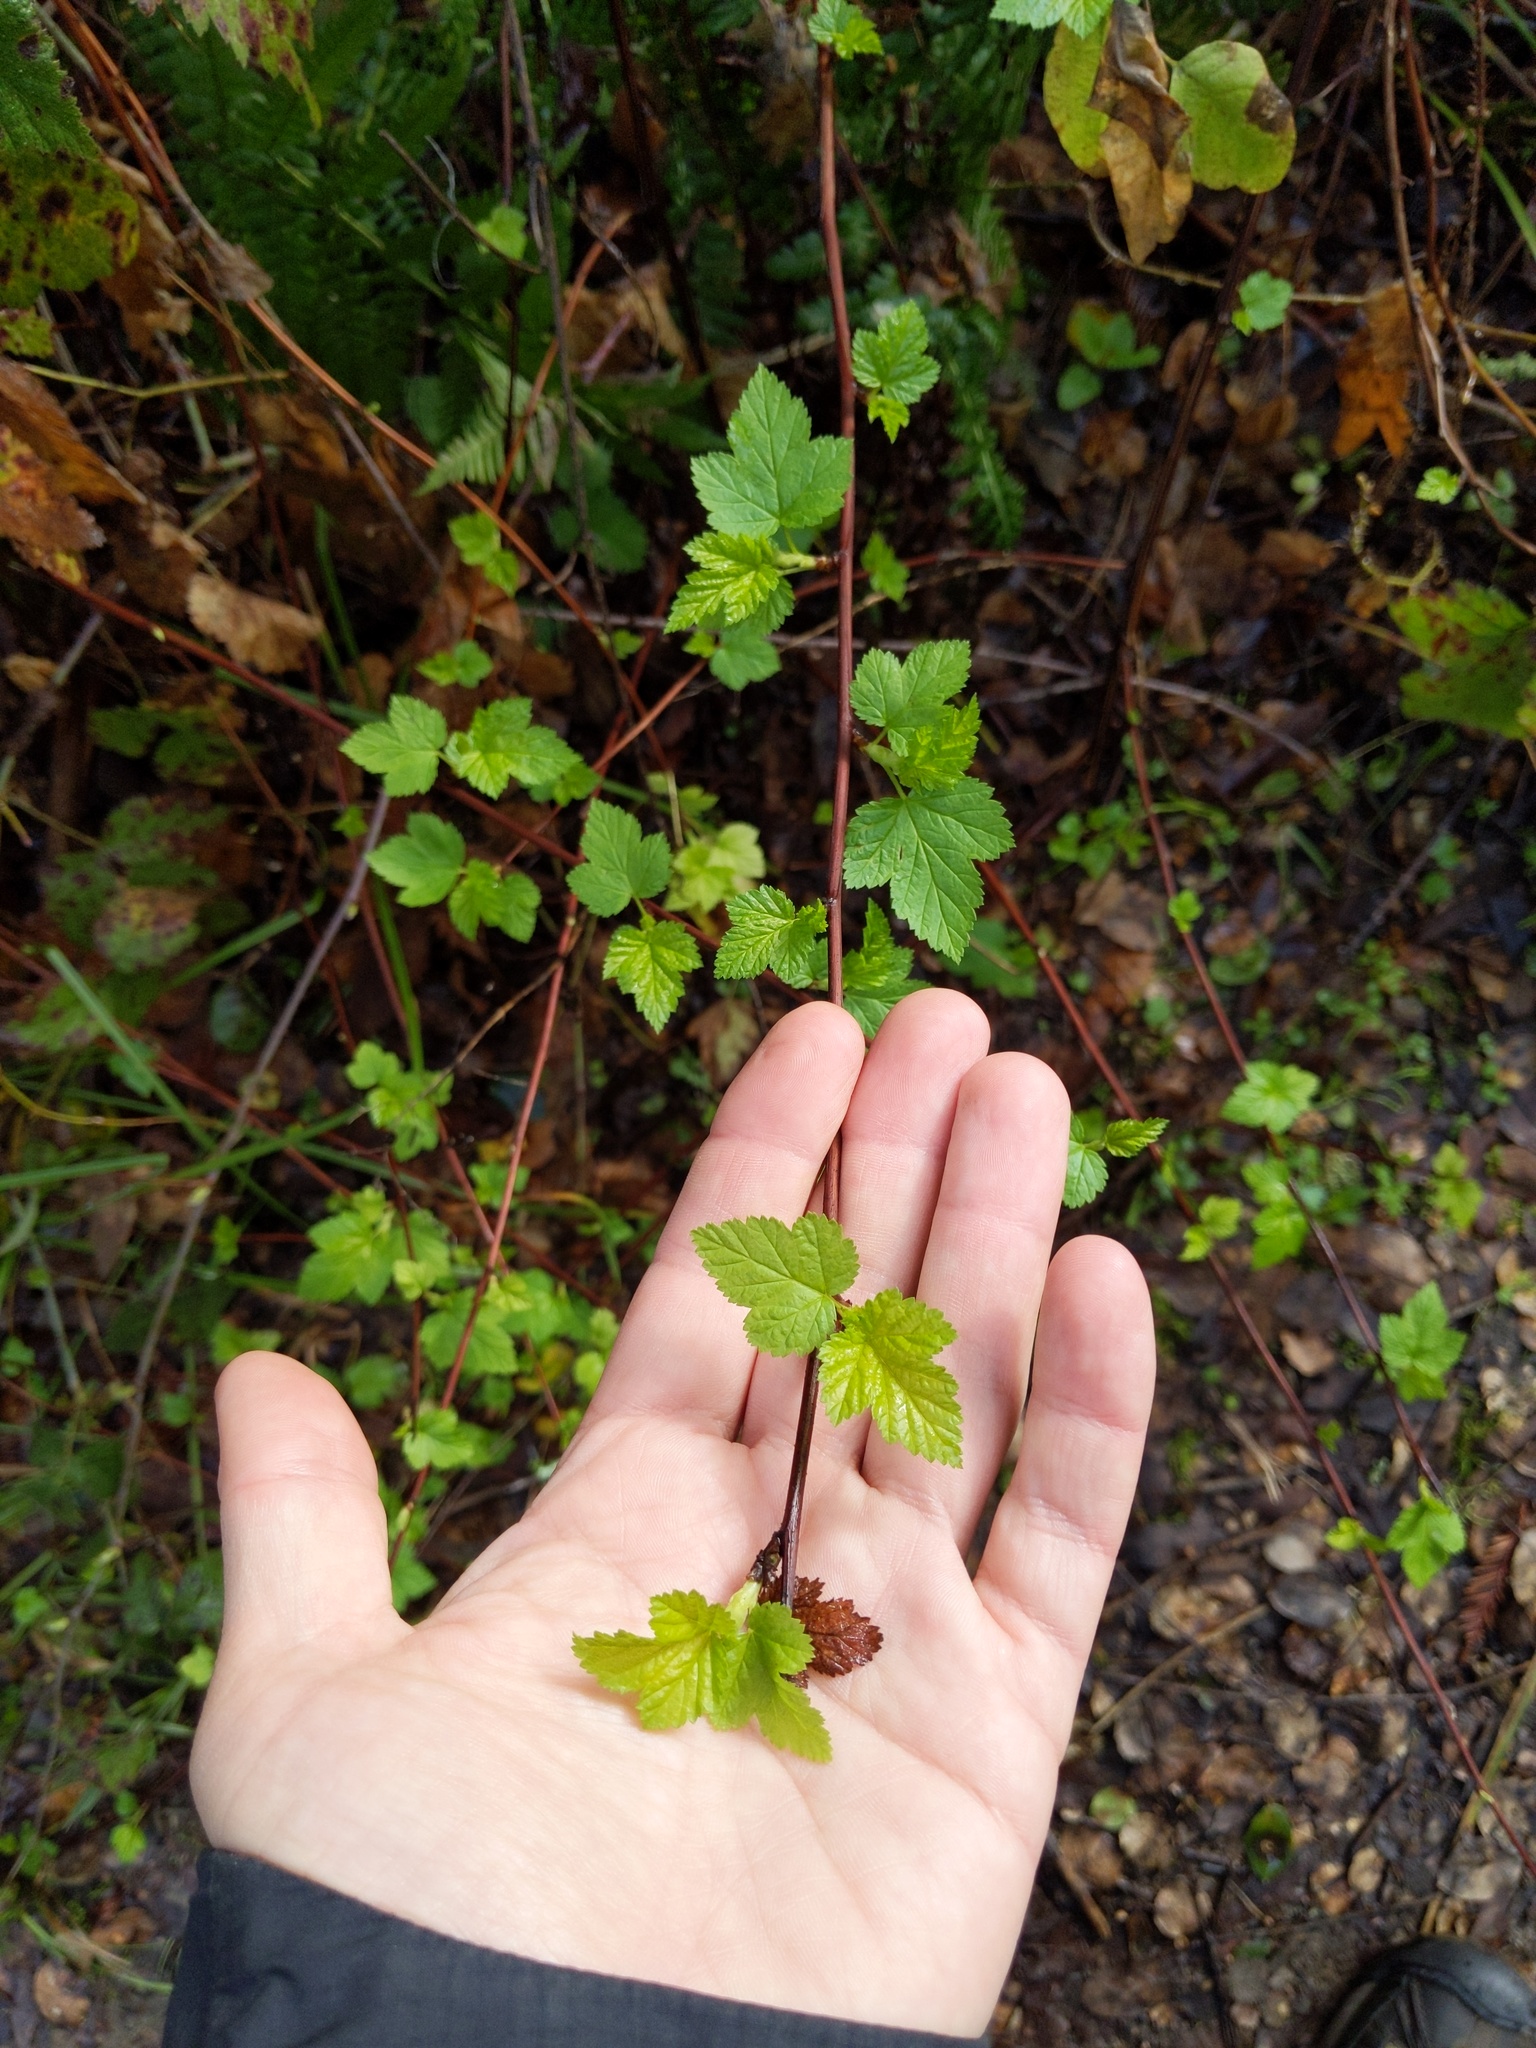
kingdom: Plantae
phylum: Tracheophyta
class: Magnoliopsida
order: Rosales
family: Rosaceae
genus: Physocarpus
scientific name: Physocarpus capitatus
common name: Pacific ninebark
